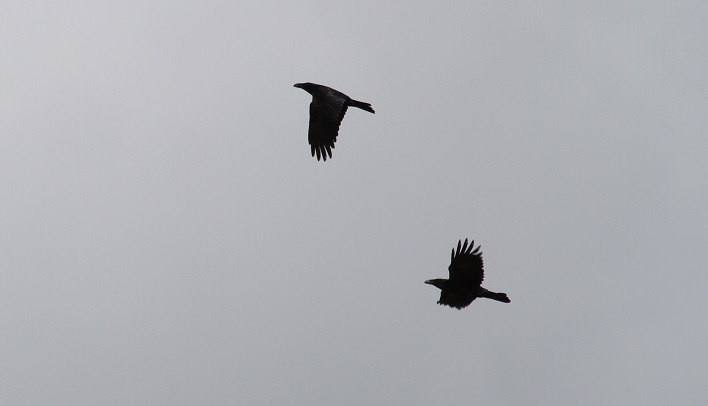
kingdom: Animalia
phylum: Chordata
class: Aves
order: Passeriformes
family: Corvidae
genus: Corvus
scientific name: Corvus corax
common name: Common raven
